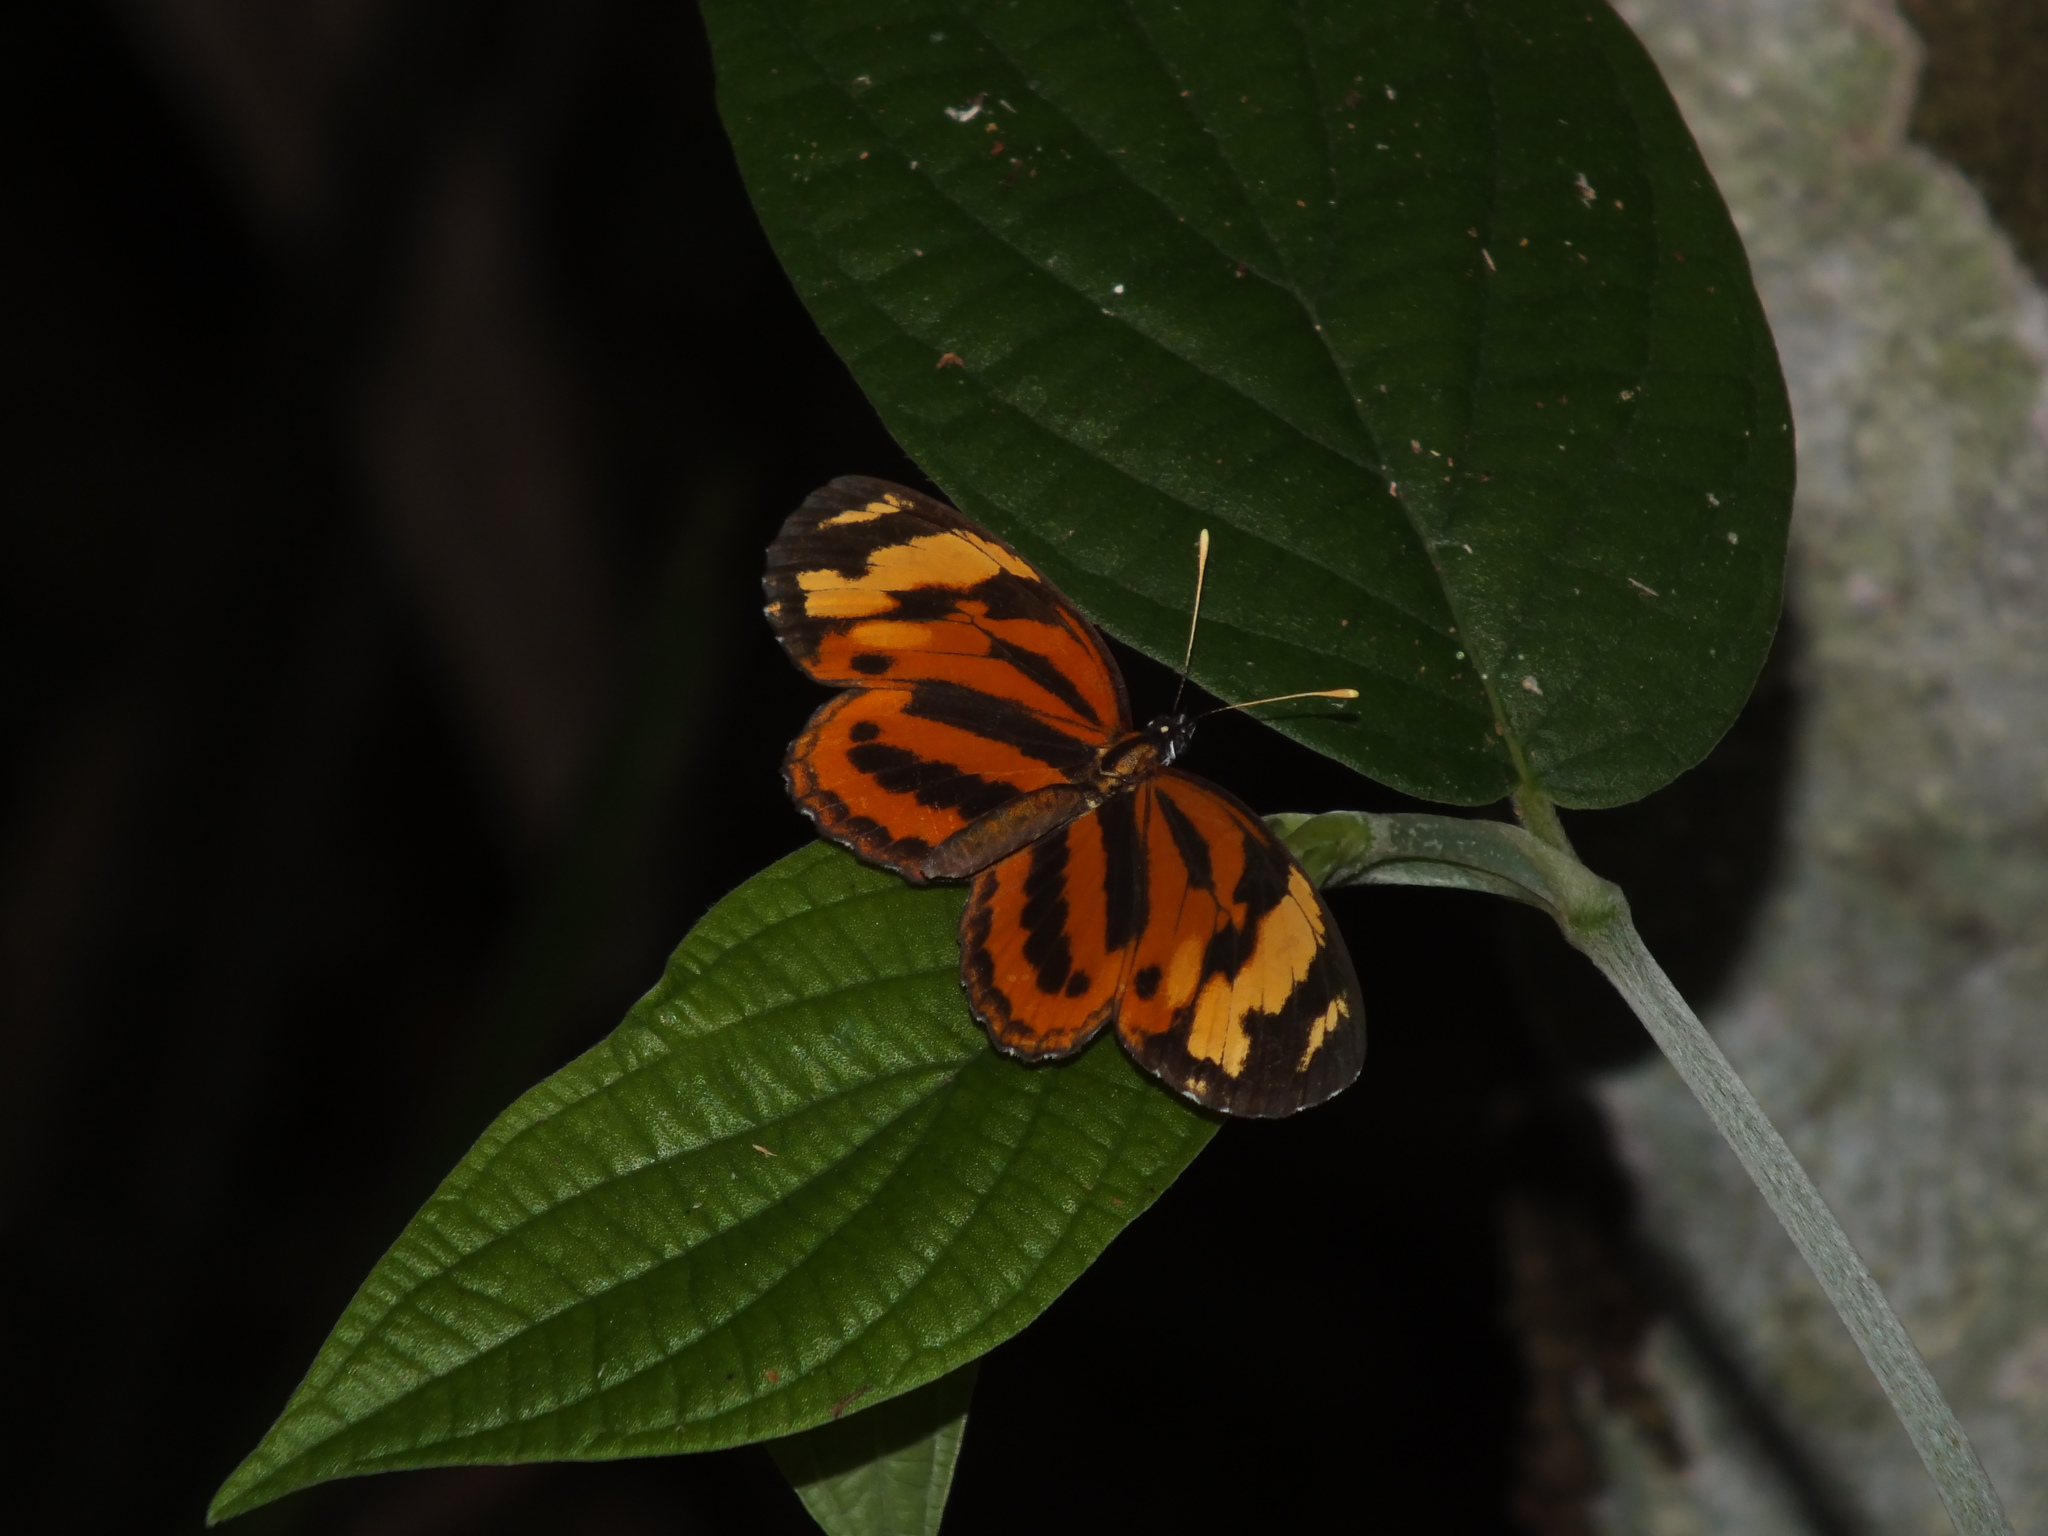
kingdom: Animalia
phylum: Arthropoda
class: Insecta
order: Lepidoptera
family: Nymphalidae
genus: Eresia
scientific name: Eresia eunice
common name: Tiger crescent
